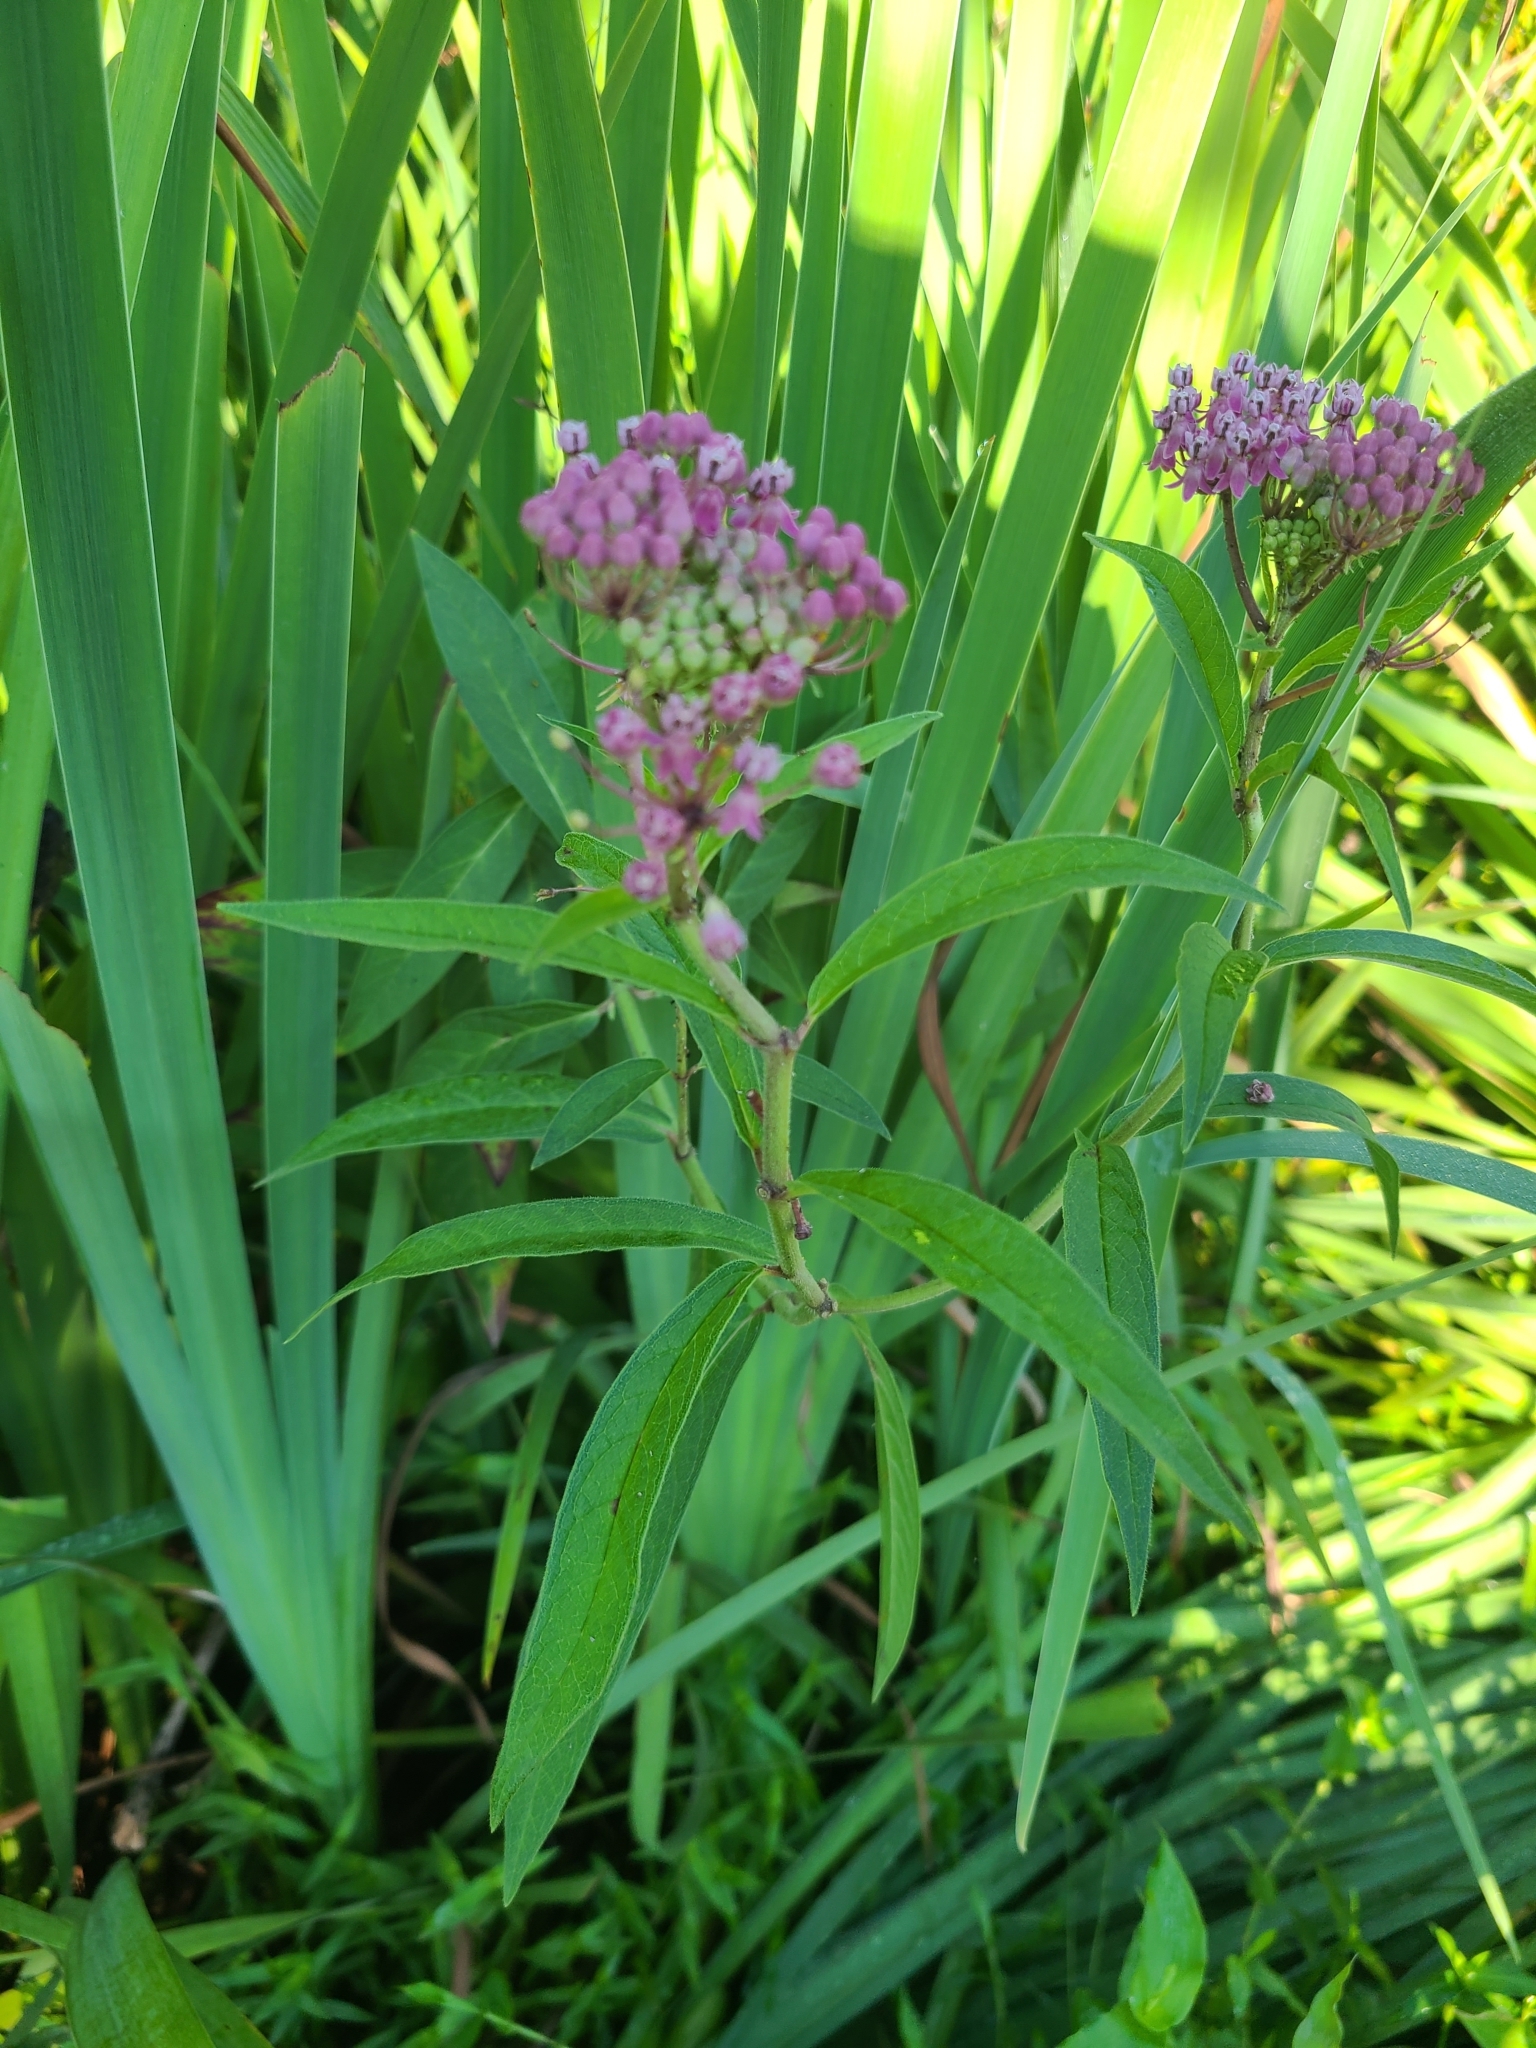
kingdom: Plantae
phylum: Tracheophyta
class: Magnoliopsida
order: Gentianales
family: Apocynaceae
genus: Asclepias
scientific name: Asclepias incarnata
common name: Swamp milkweed
